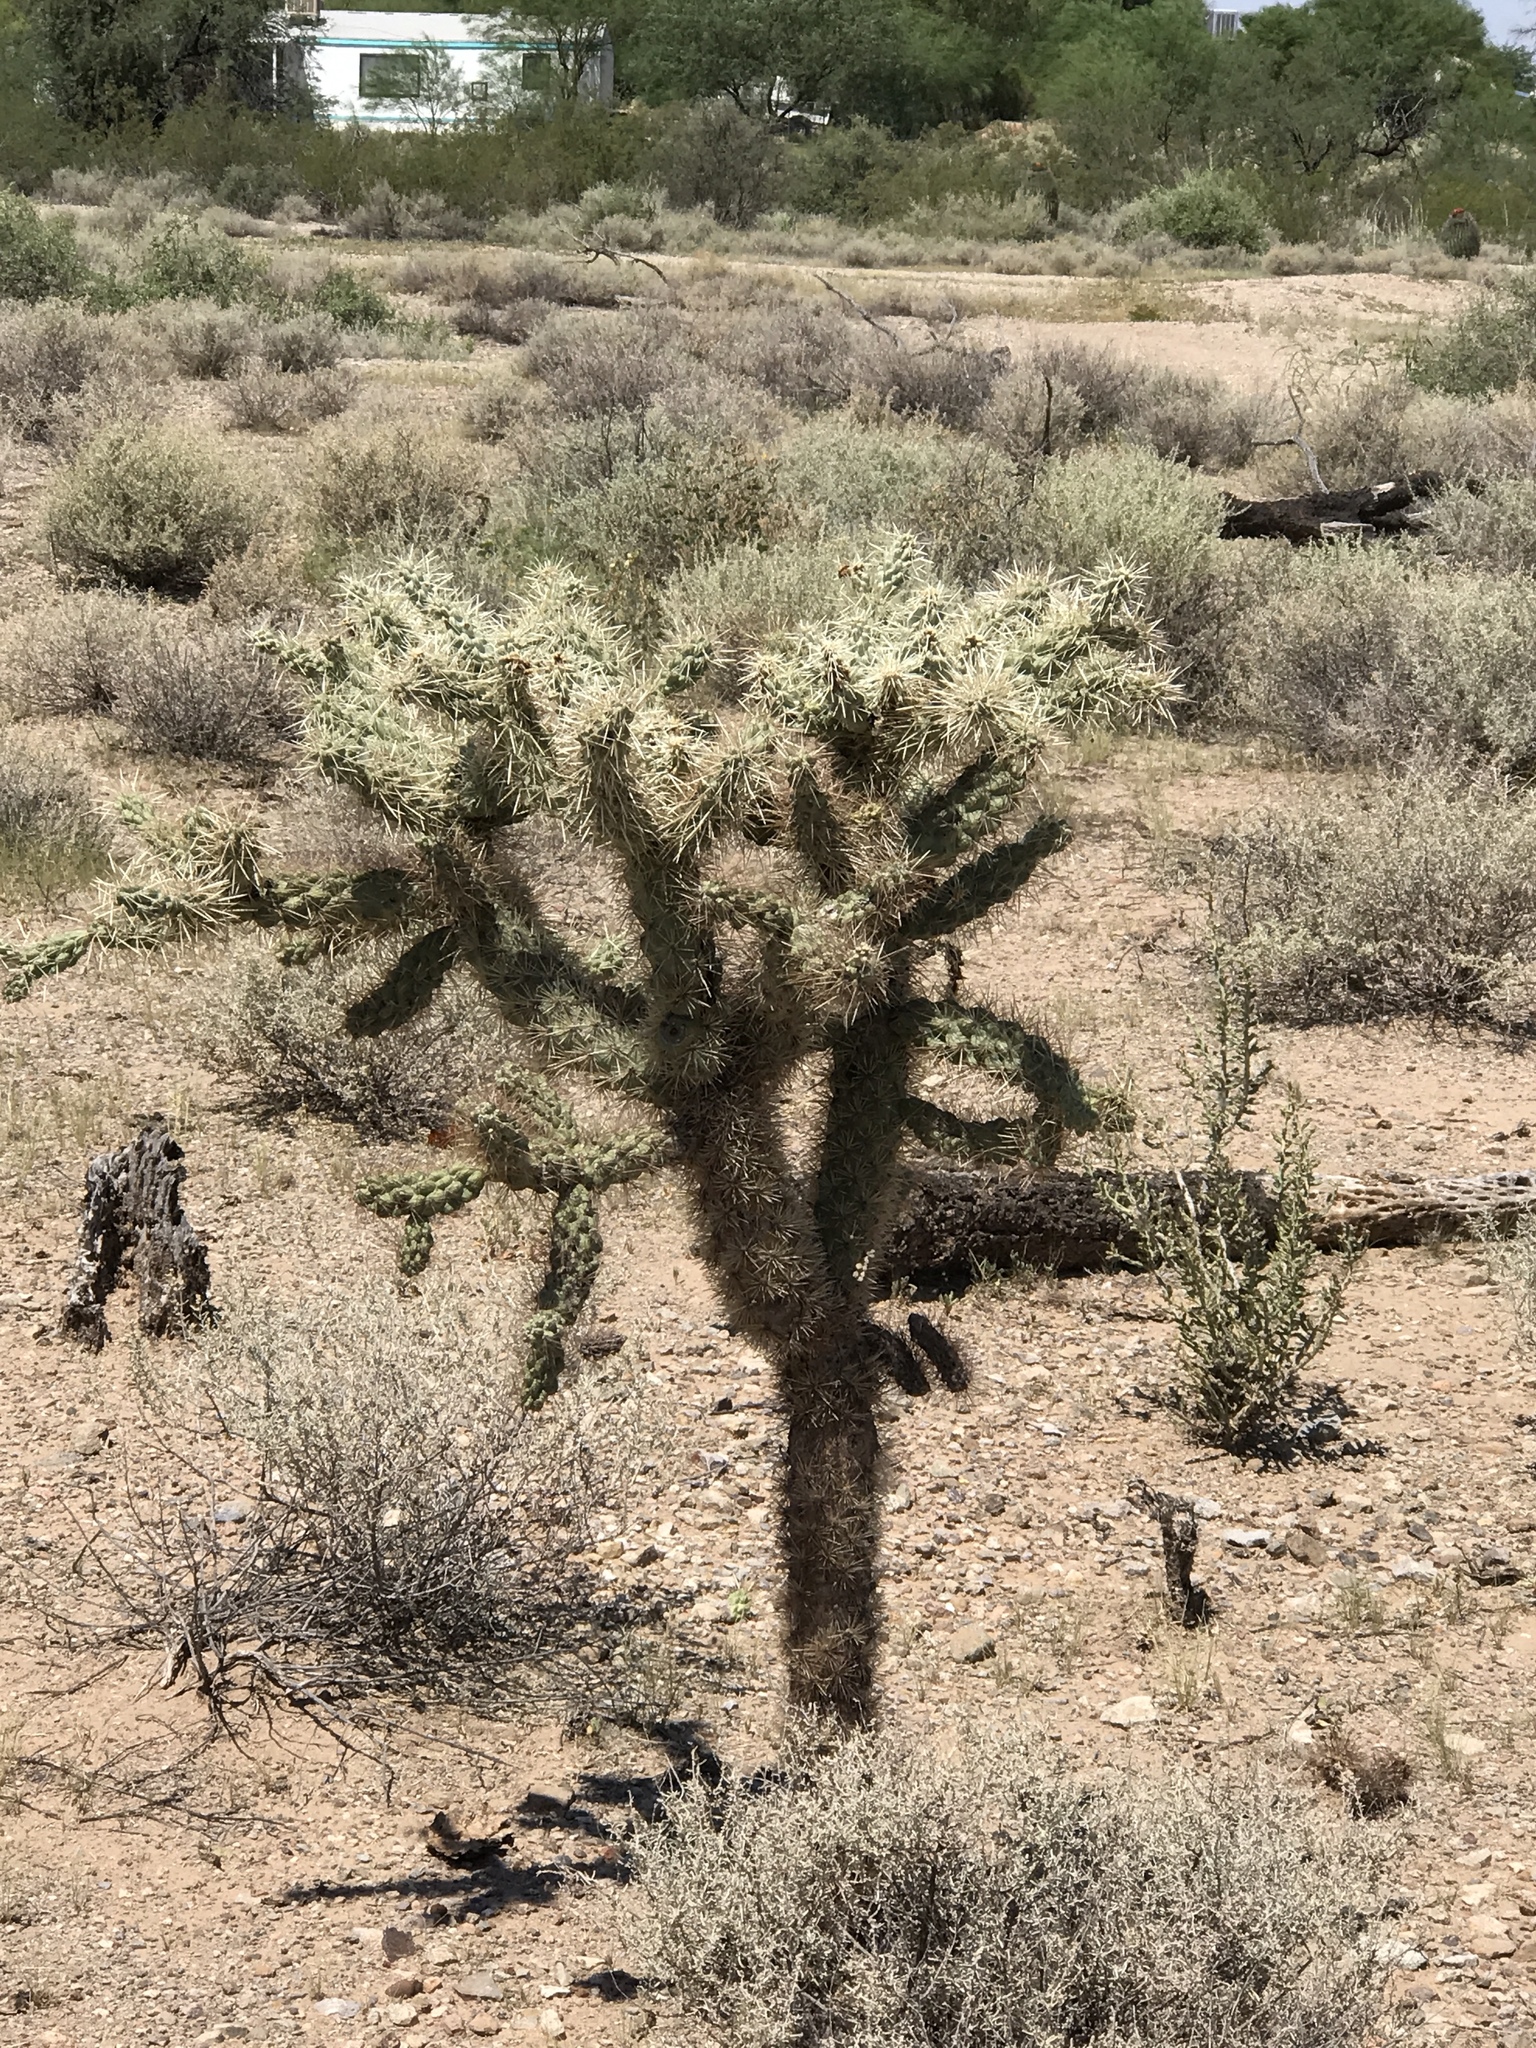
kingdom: Plantae
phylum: Tracheophyta
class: Magnoliopsida
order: Caryophyllales
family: Cactaceae
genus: Cylindropuntia
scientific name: Cylindropuntia fulgida
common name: Jumping cholla
